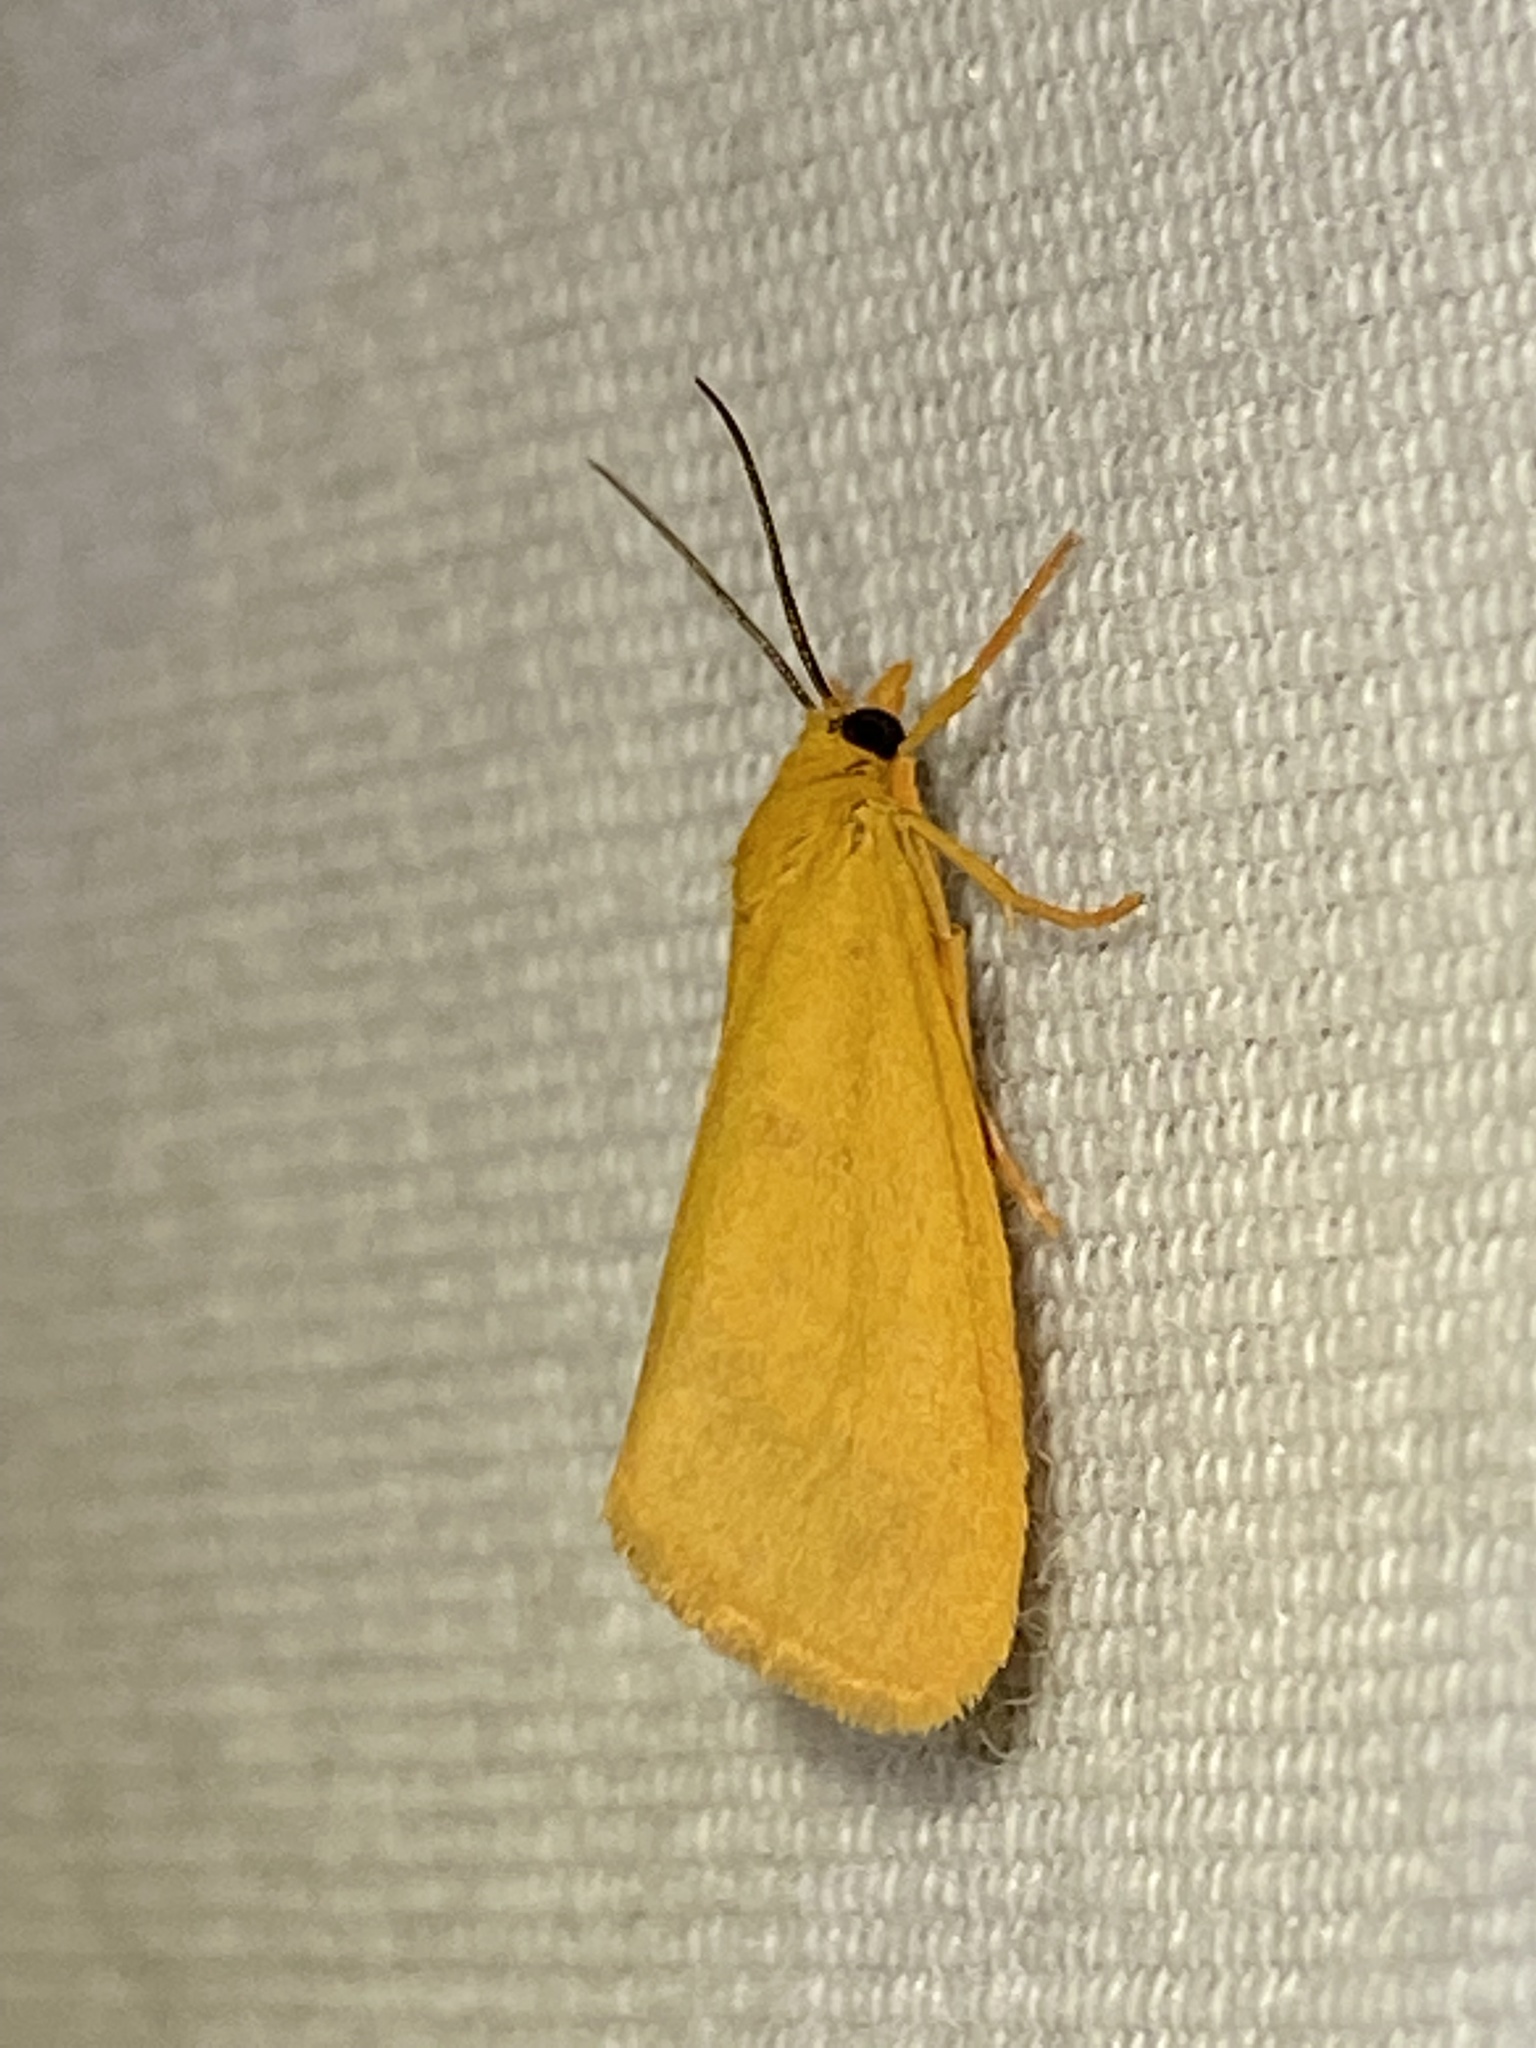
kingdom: Animalia
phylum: Arthropoda
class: Insecta
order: Lepidoptera
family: Erebidae
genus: Virbia
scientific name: Virbia aurantiaca
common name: Orange virbia moth
